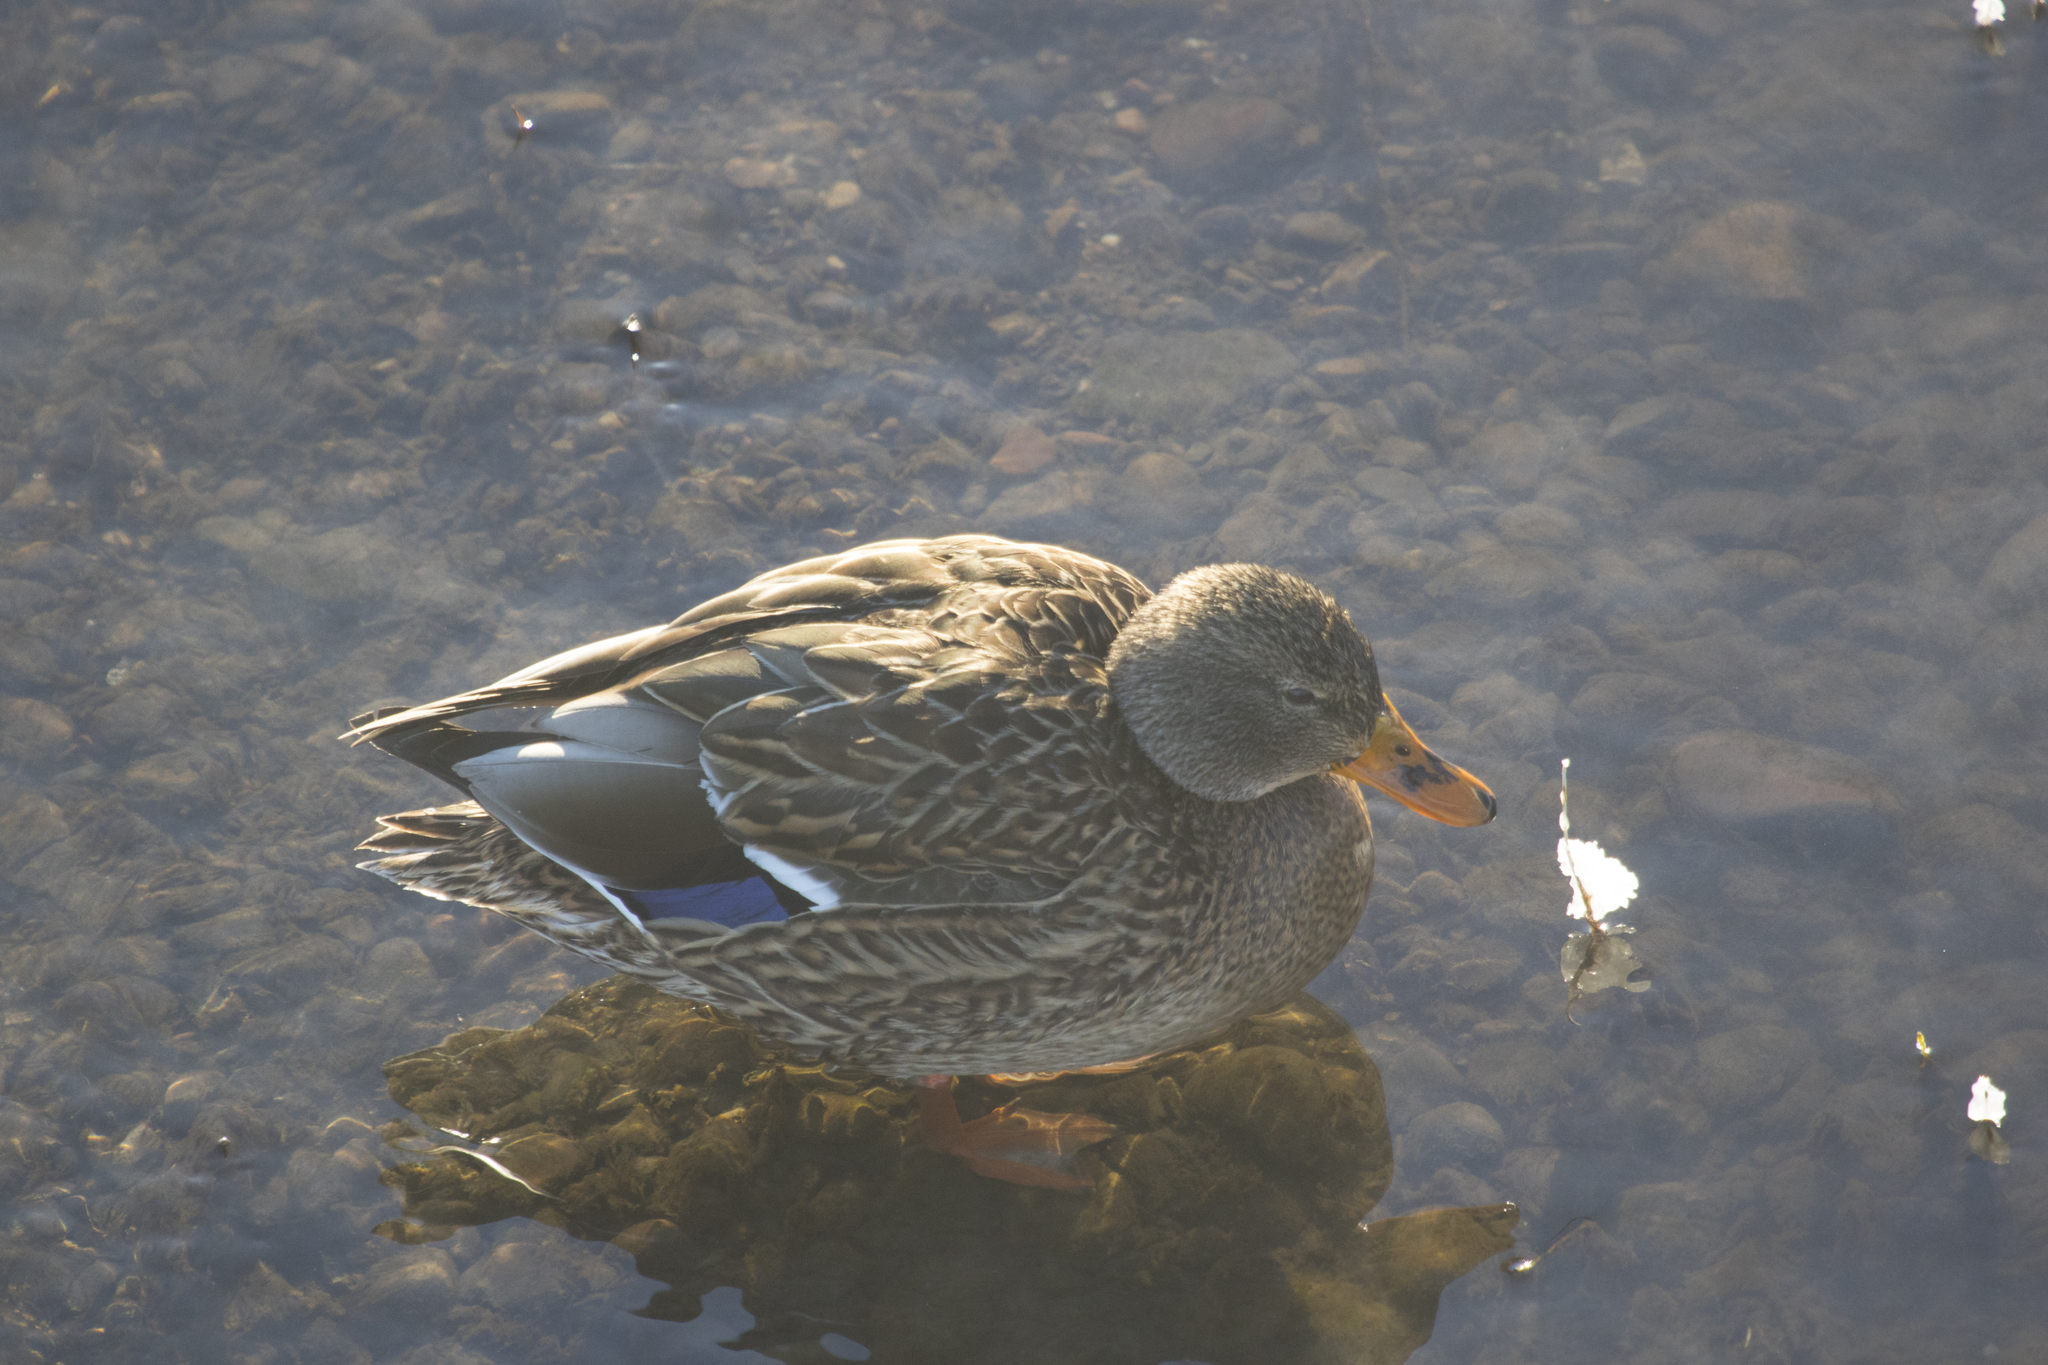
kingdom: Animalia
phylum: Chordata
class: Aves
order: Anseriformes
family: Anatidae
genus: Anas
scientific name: Anas platyrhynchos
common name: Mallard
